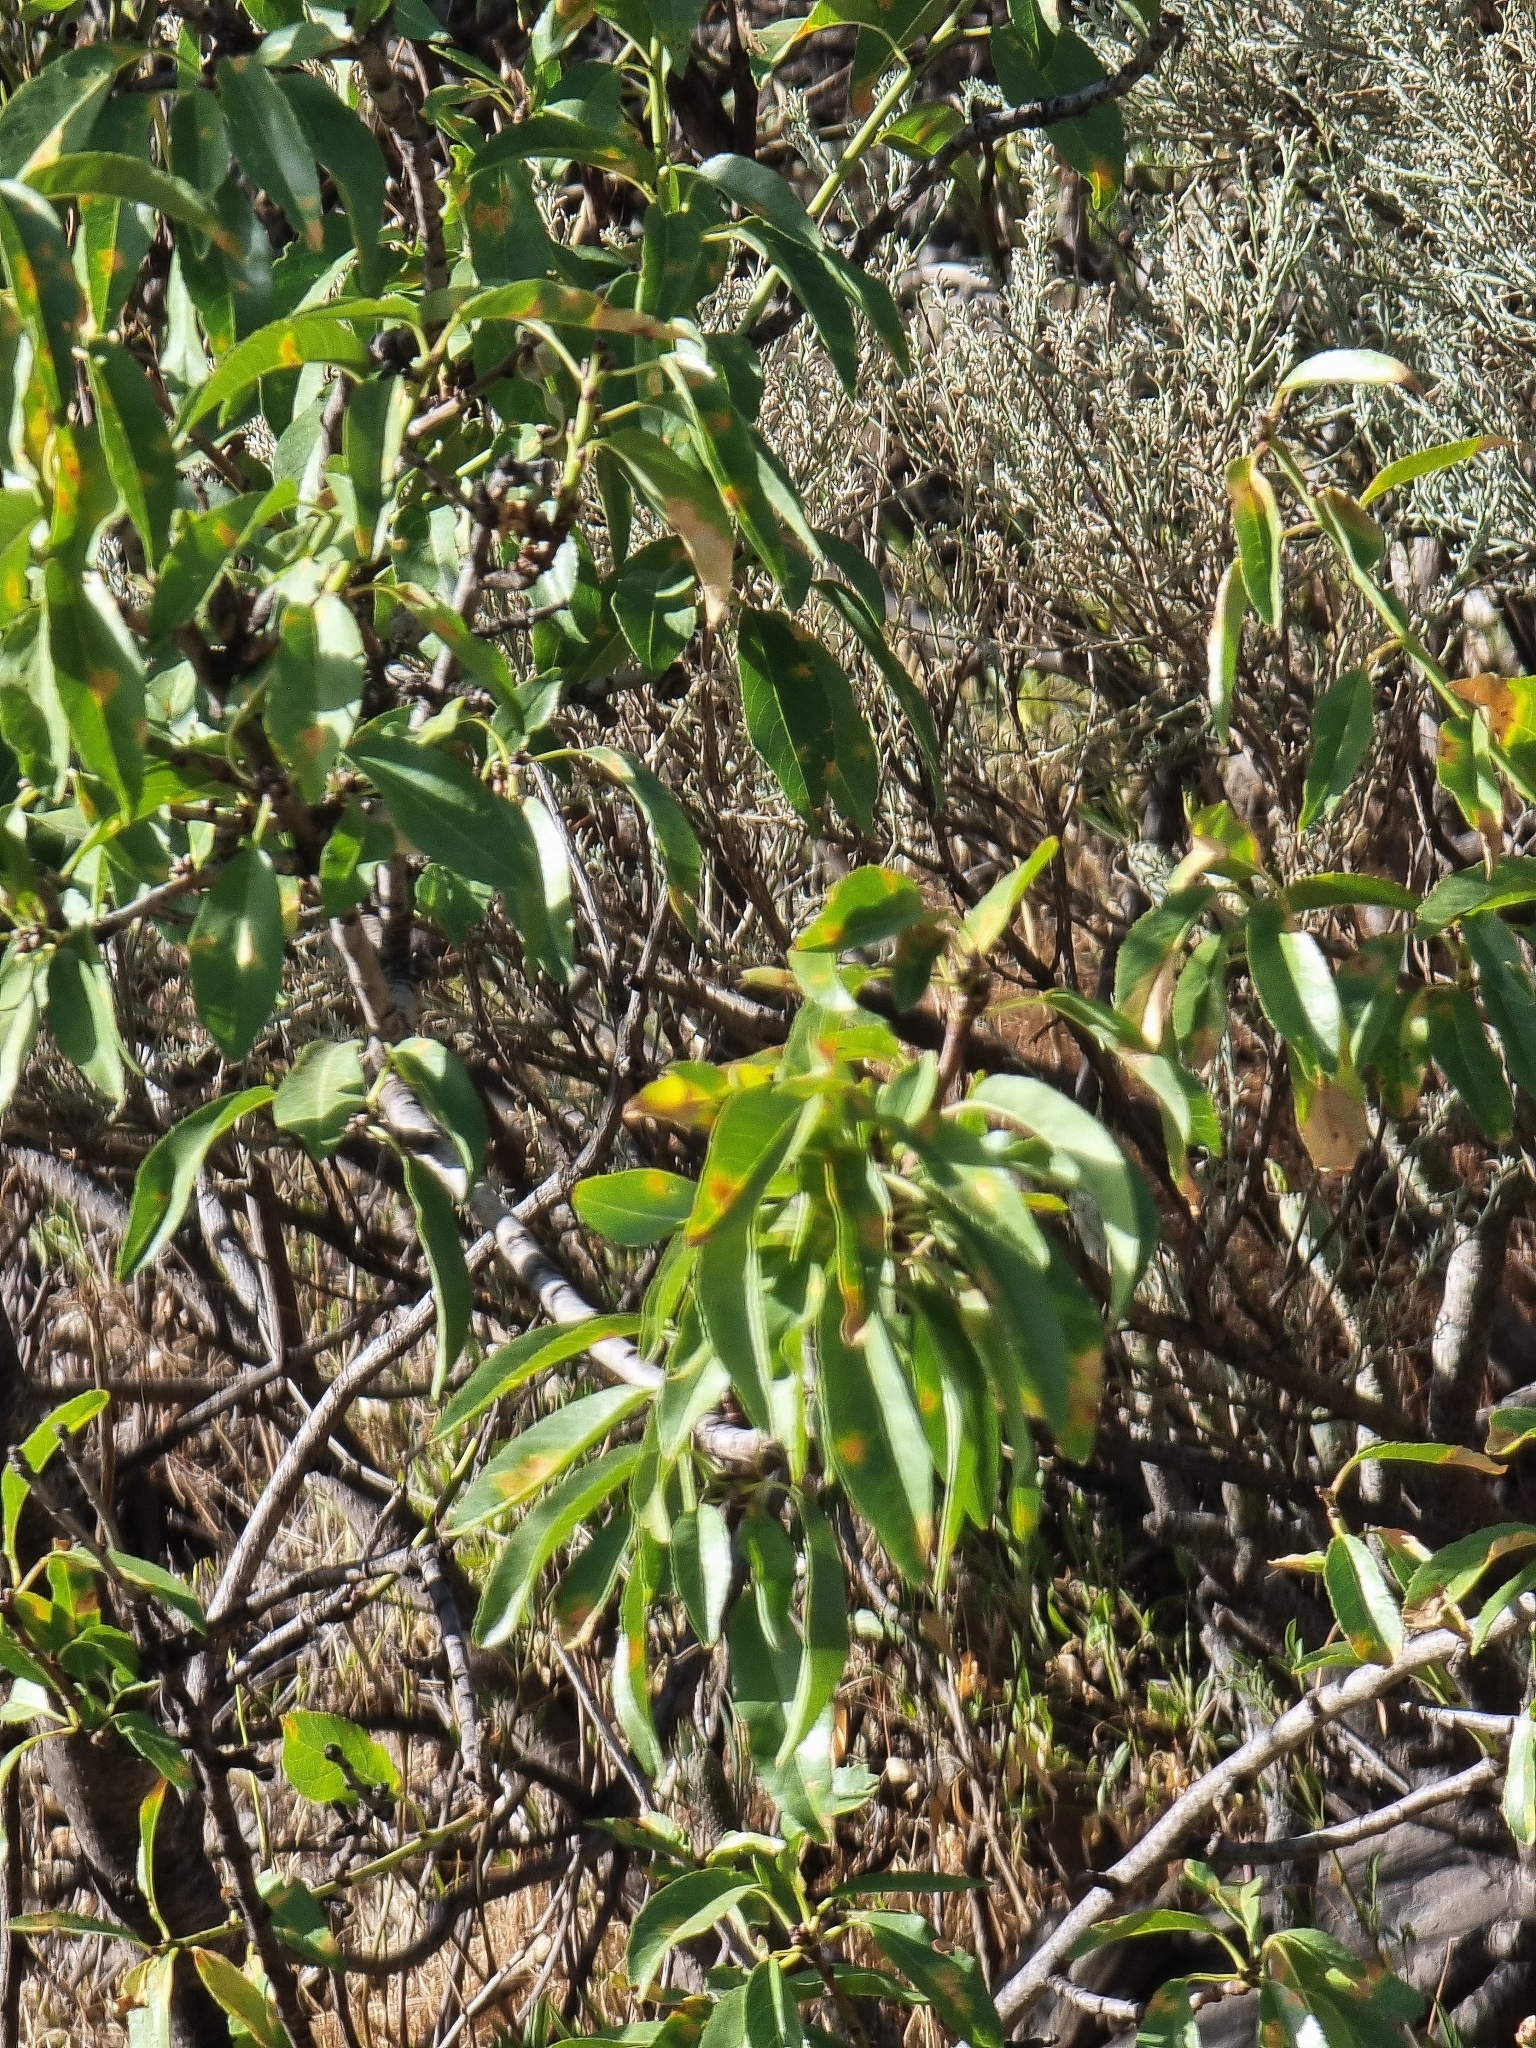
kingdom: Plantae
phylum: Tracheophyta
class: Magnoliopsida
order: Rosales
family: Rosaceae
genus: Prunus
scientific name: Prunus amygdalus
